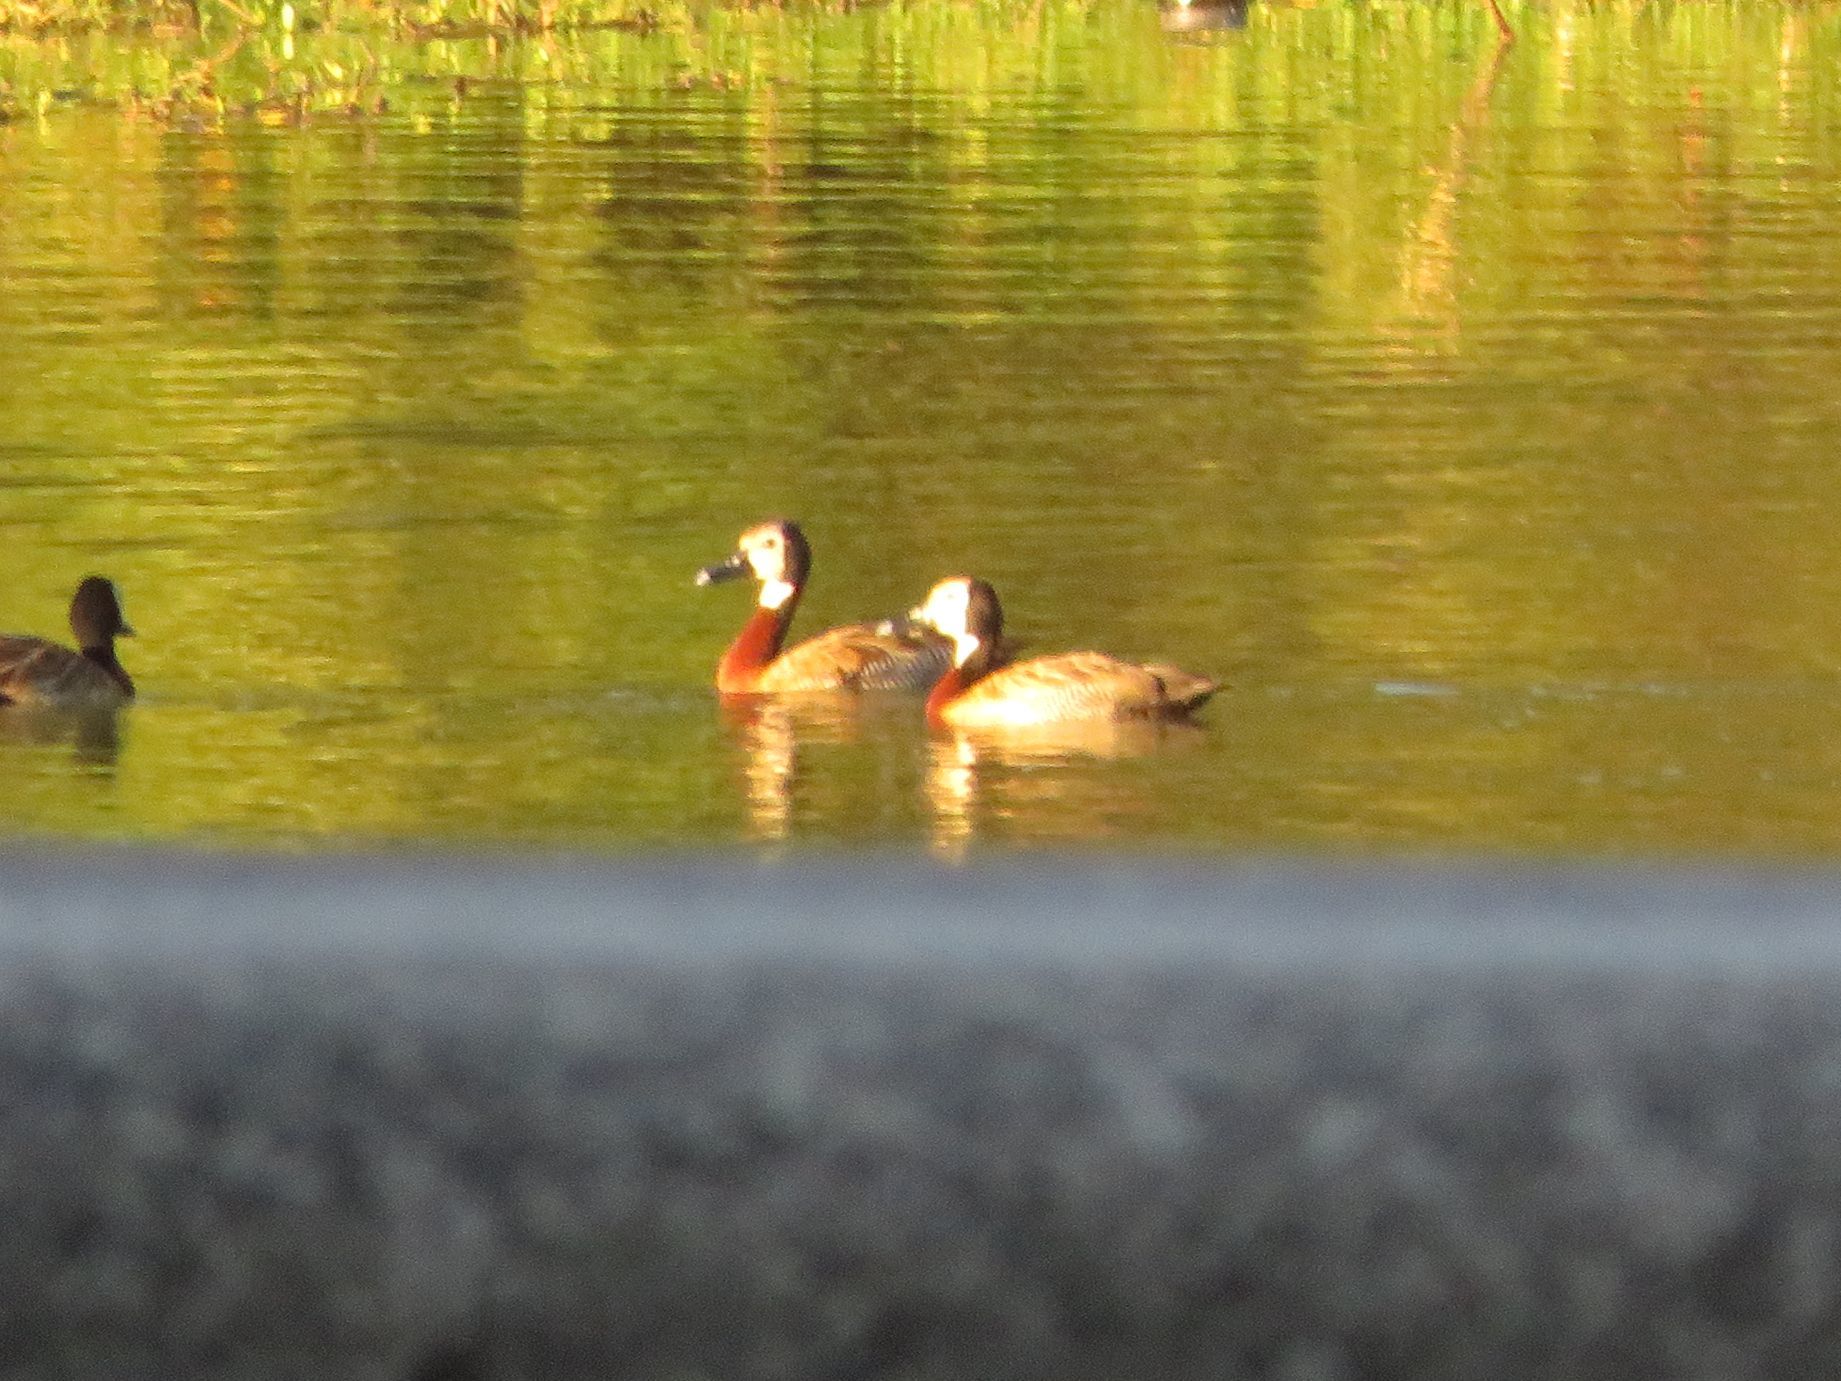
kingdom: Animalia
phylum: Chordata
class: Aves
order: Anseriformes
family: Anatidae
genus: Dendrocygna
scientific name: Dendrocygna viduata
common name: White-faced whistling duck
